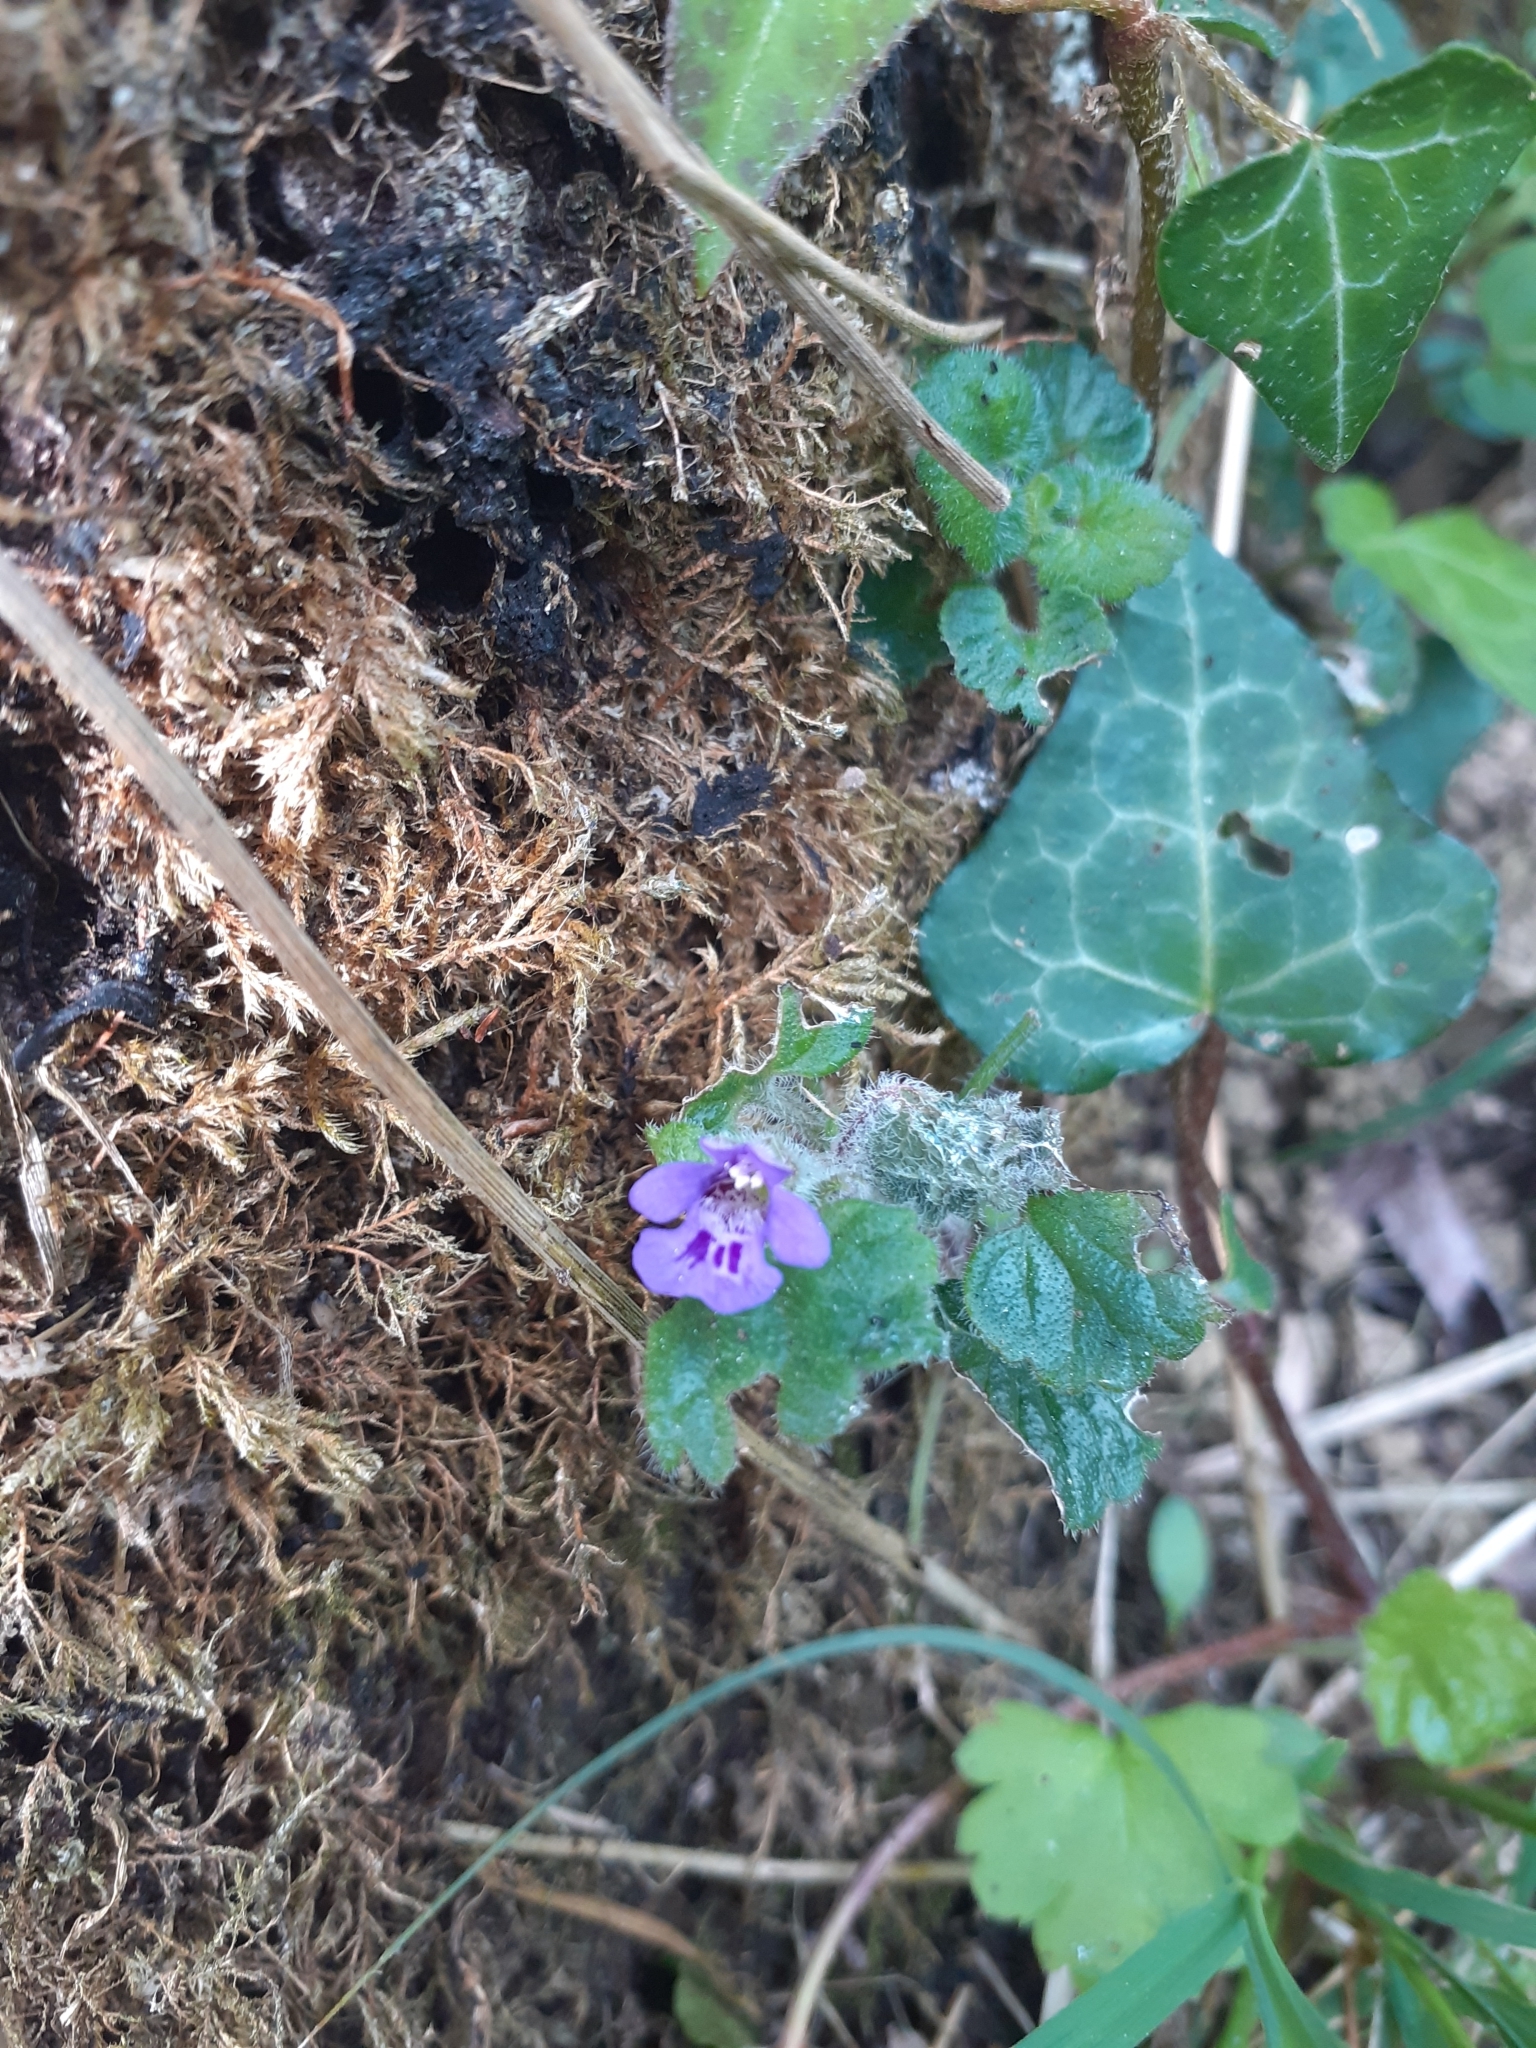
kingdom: Plantae
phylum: Tracheophyta
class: Magnoliopsida
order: Lamiales
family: Lamiaceae
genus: Glechoma
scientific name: Glechoma hederacea
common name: Ground ivy
